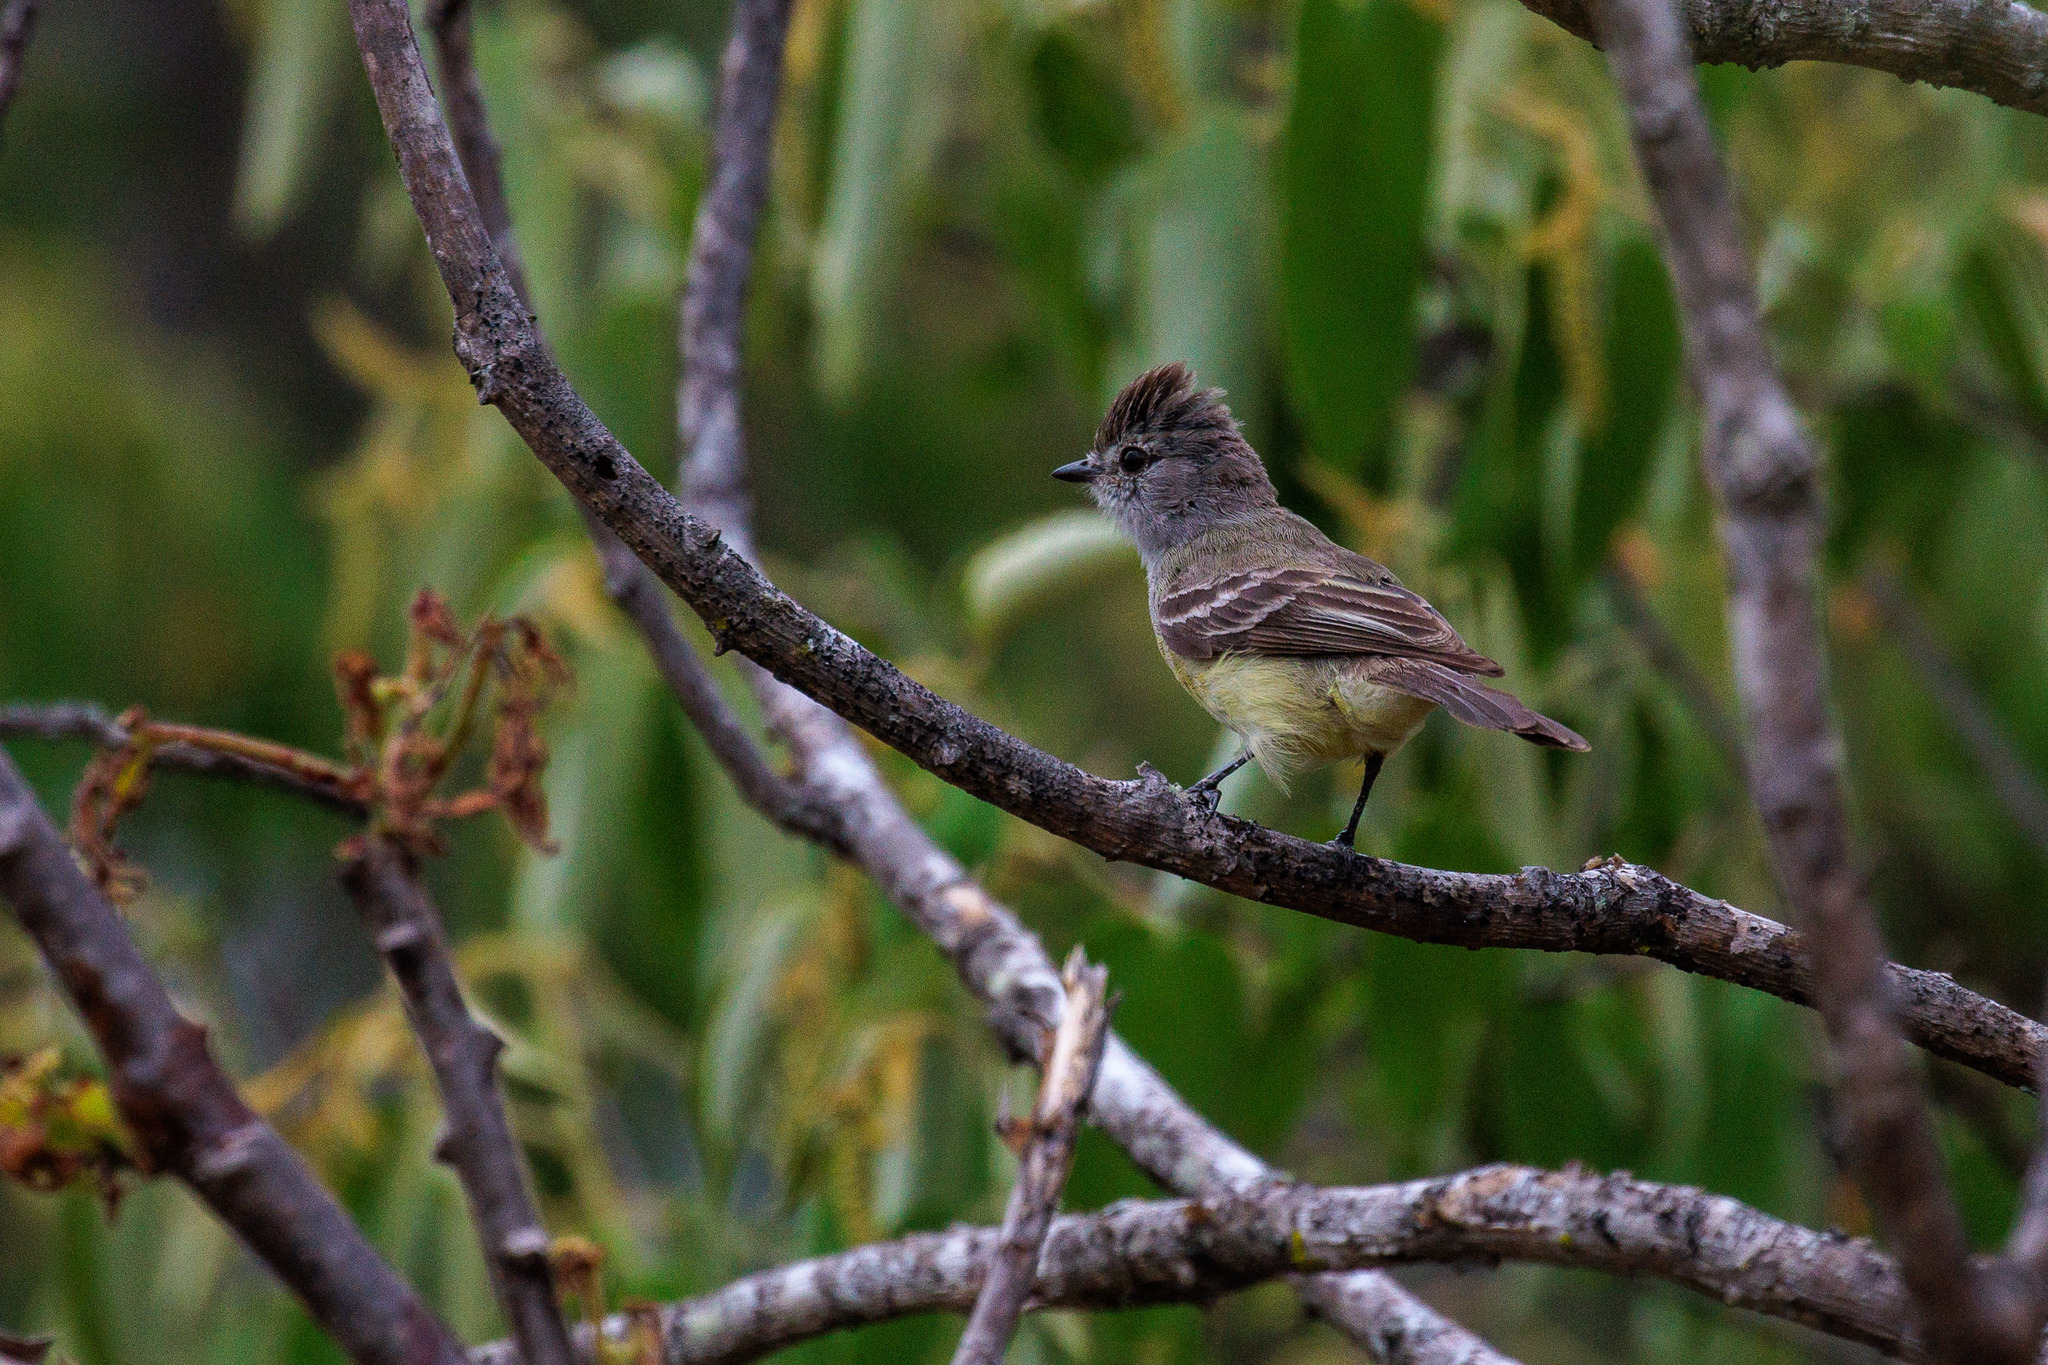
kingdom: Animalia
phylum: Chordata
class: Aves
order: Passeriformes
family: Tyrannidae
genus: Sublegatus
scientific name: Sublegatus modestus
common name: Southern scrub flycatcher
